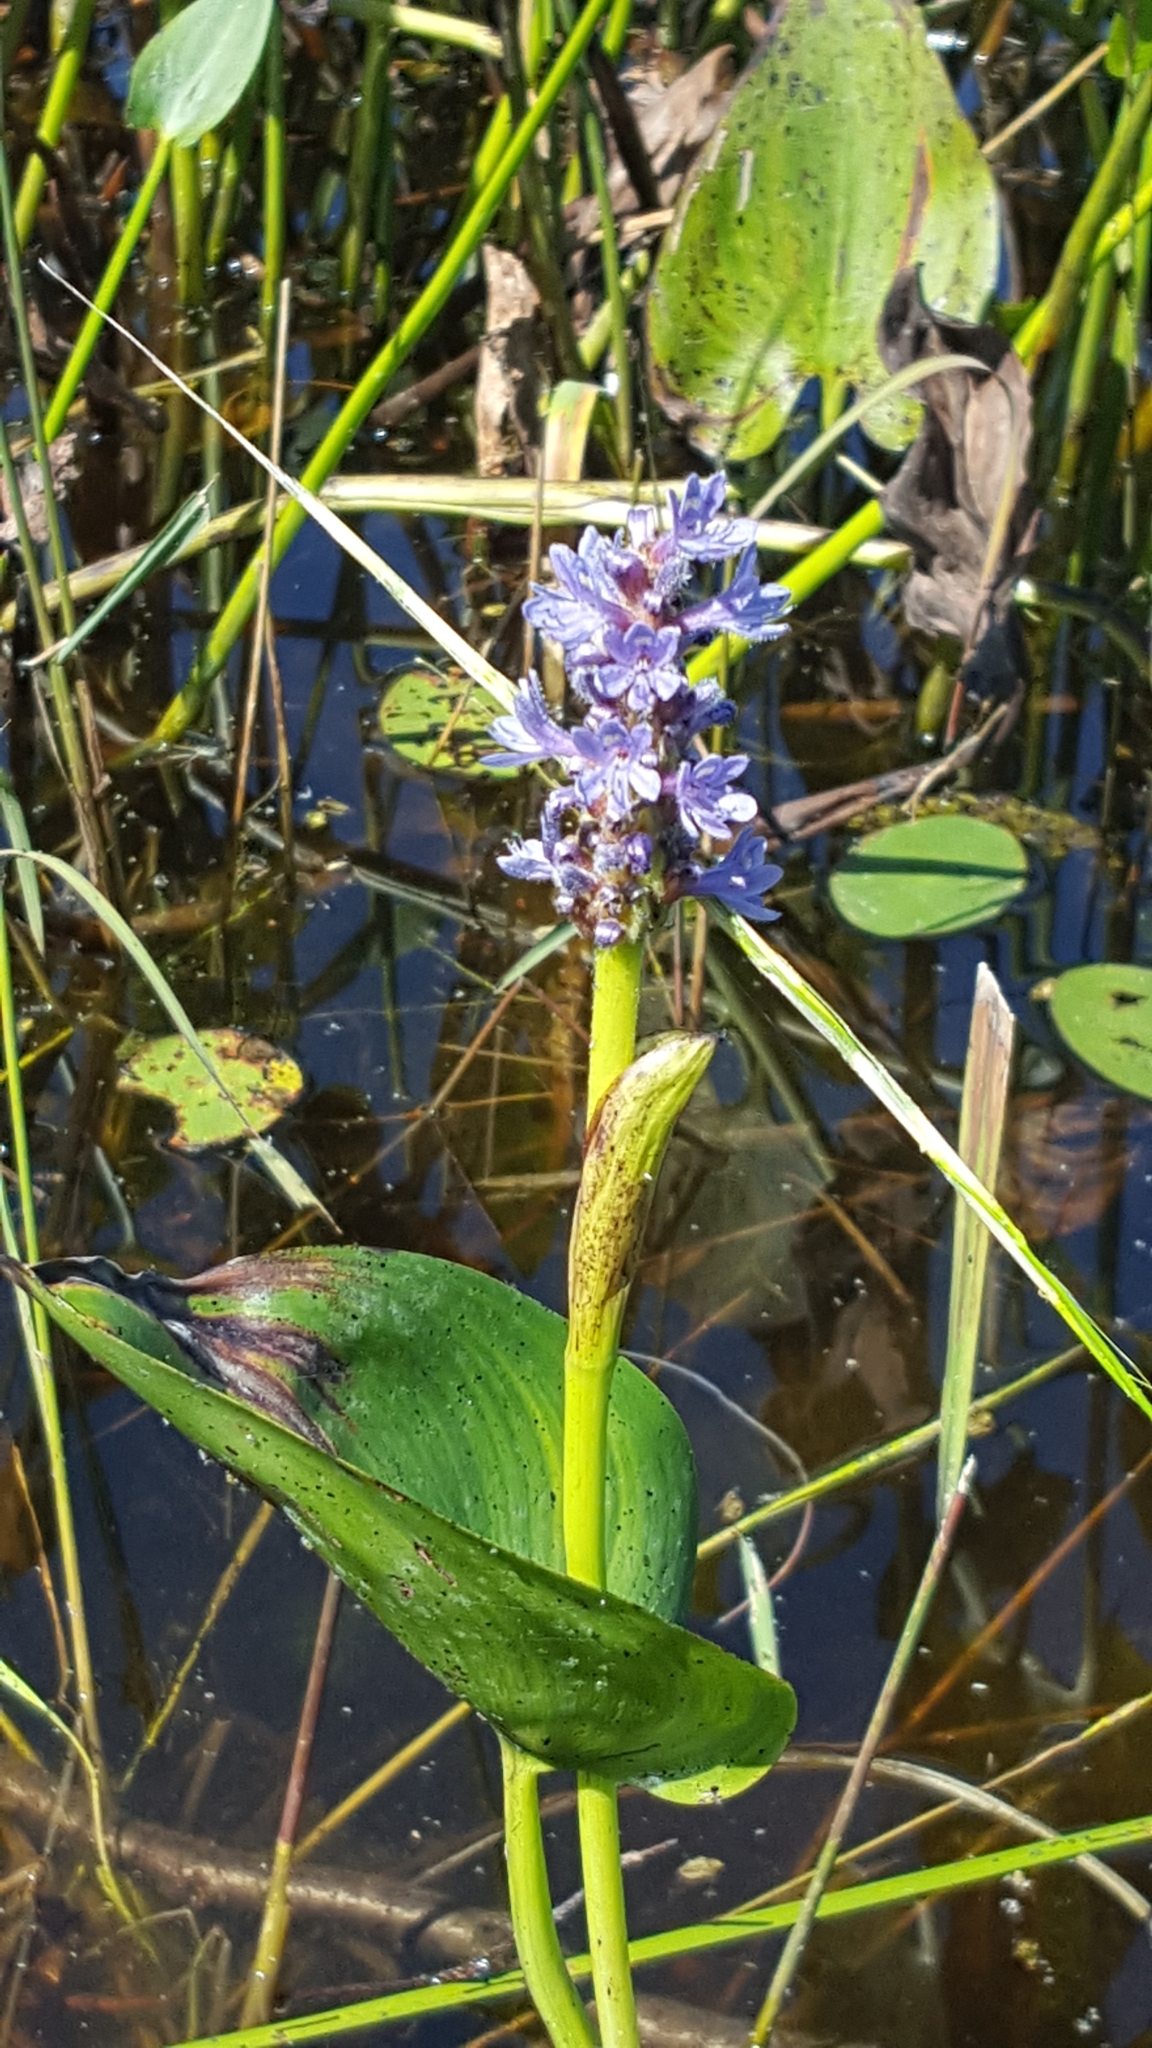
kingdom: Plantae
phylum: Tracheophyta
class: Liliopsida
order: Commelinales
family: Pontederiaceae
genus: Pontederia
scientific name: Pontederia cordata
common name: Pickerelweed
